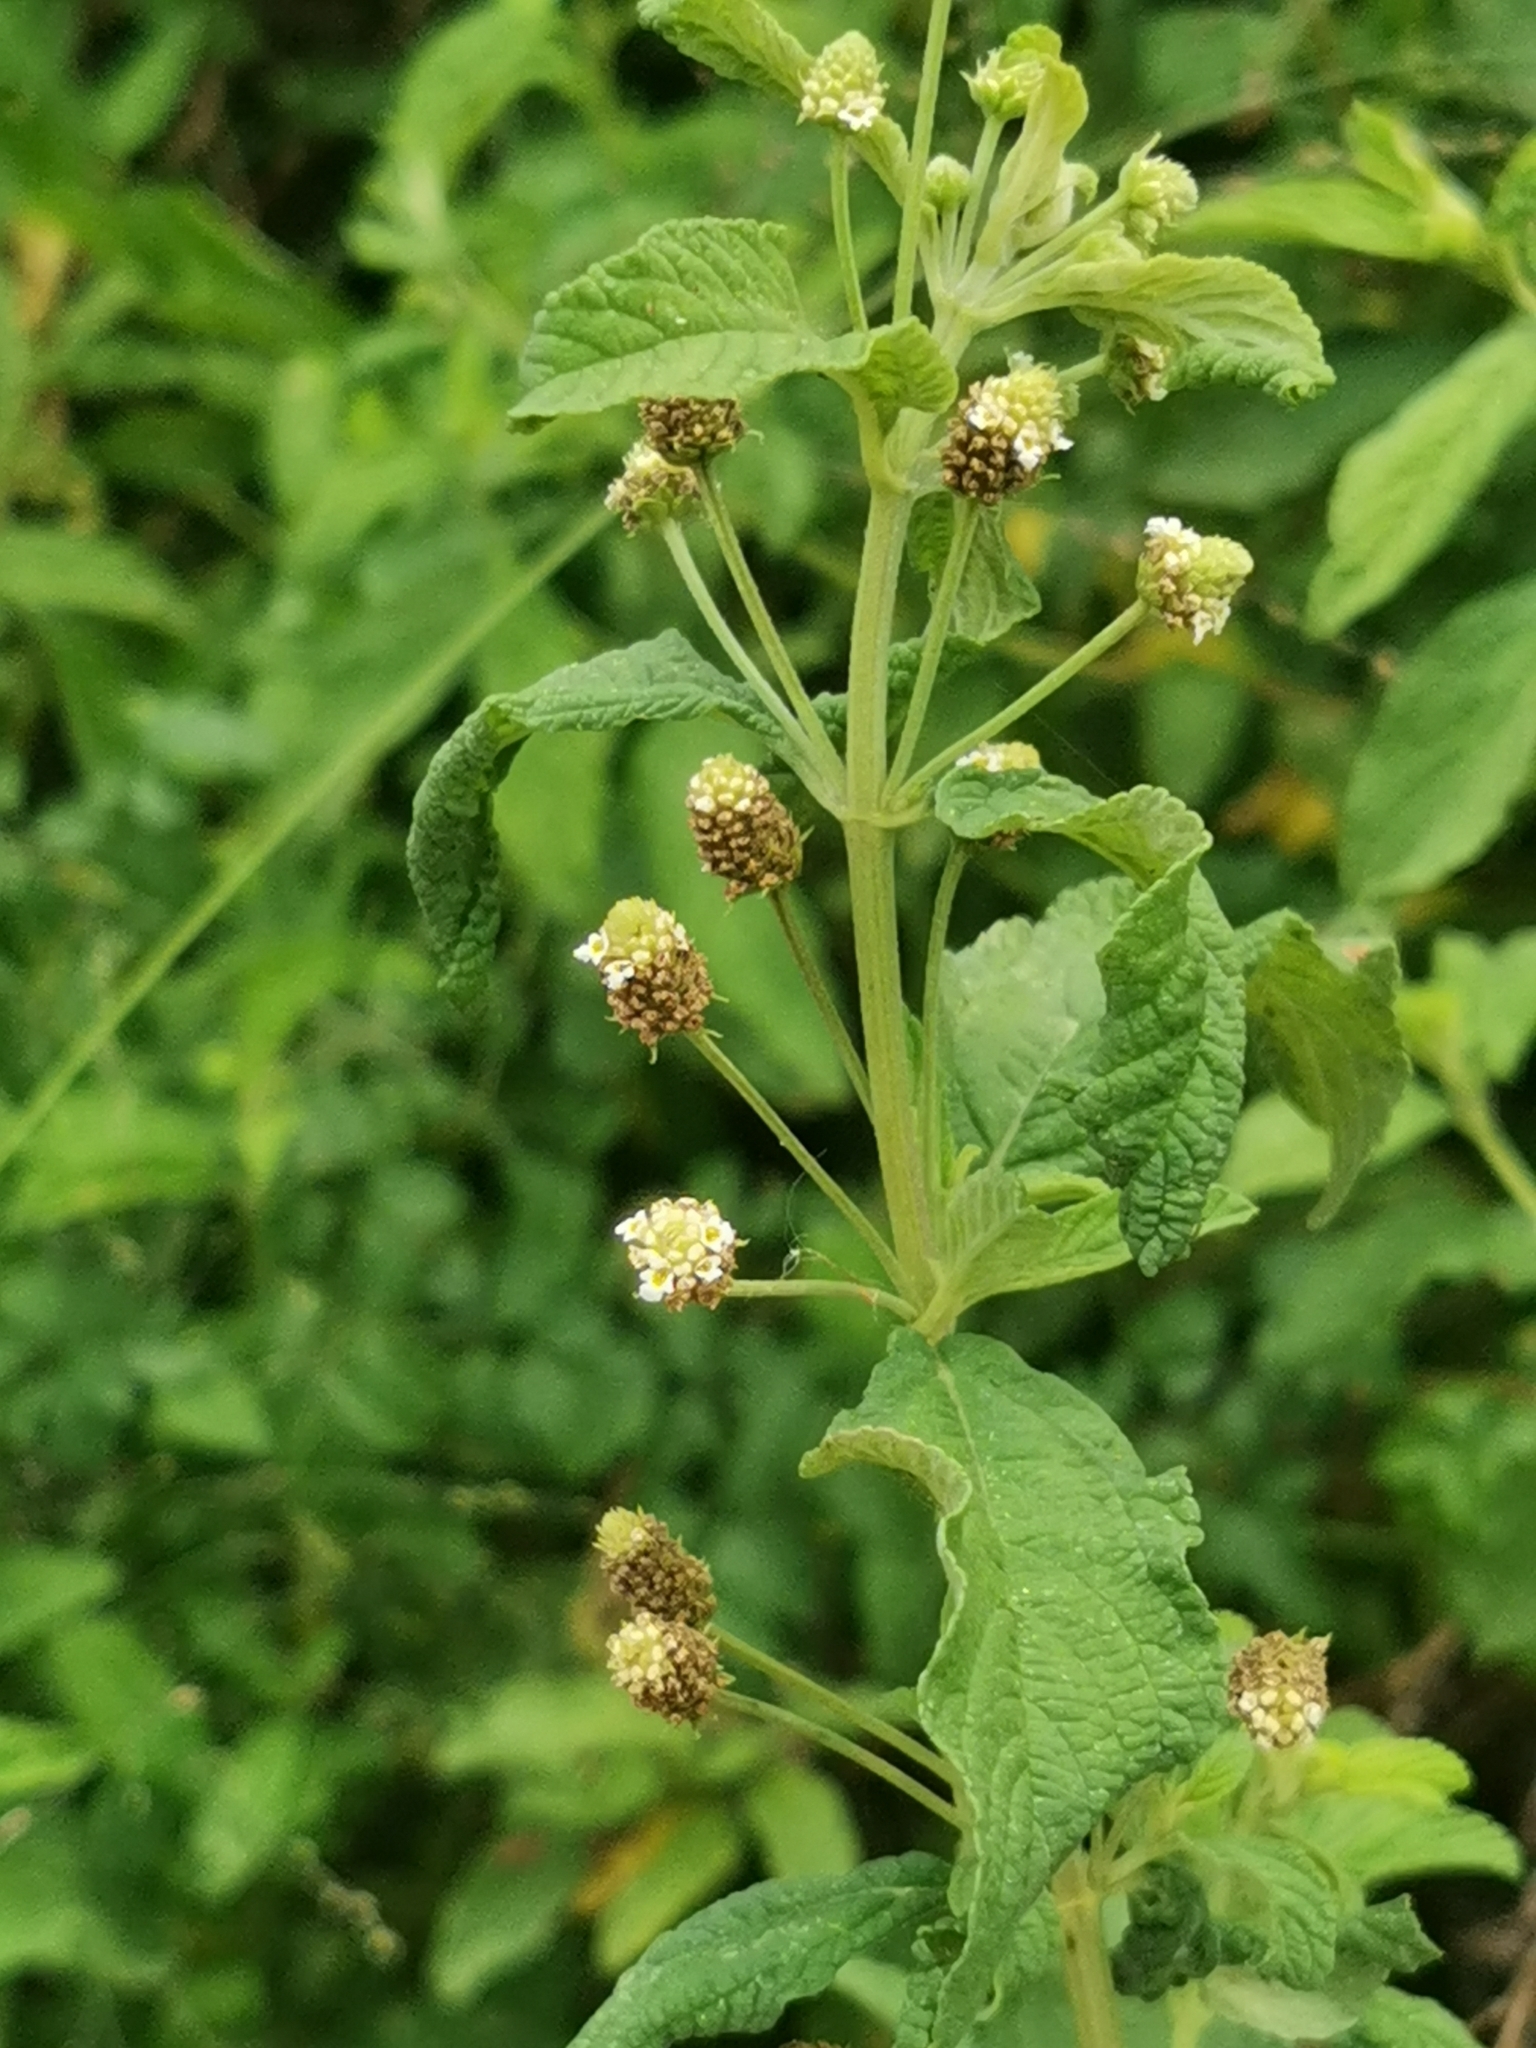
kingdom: Plantae
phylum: Tracheophyta
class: Magnoliopsida
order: Lamiales
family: Verbenaceae
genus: Lippia
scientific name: Lippia javanica
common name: Lemonbush
